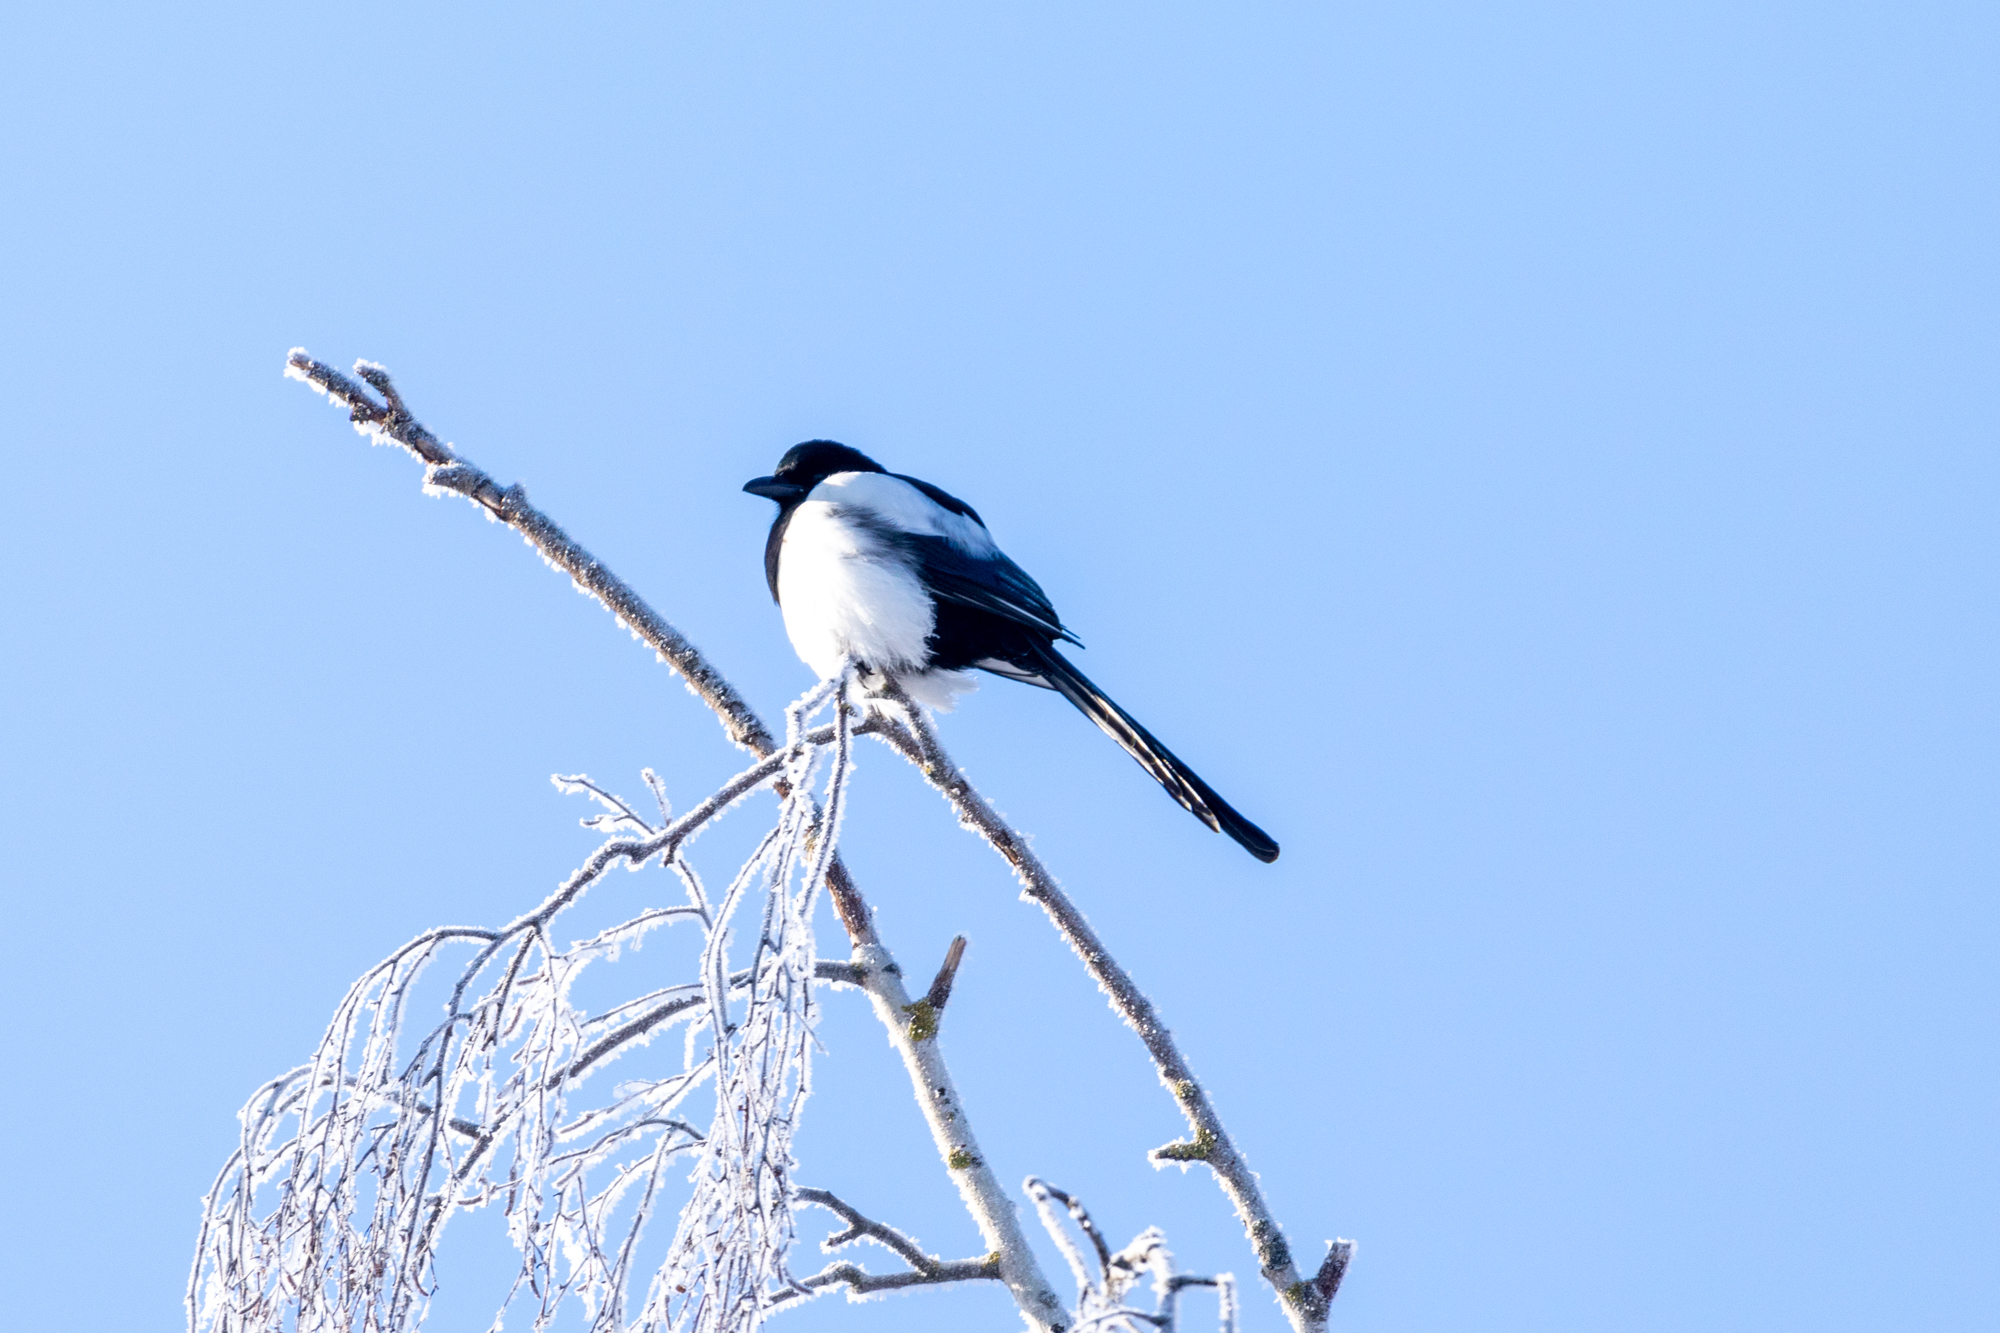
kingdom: Animalia
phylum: Chordata
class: Aves
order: Passeriformes
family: Corvidae
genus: Pica
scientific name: Pica pica
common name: Eurasian magpie
